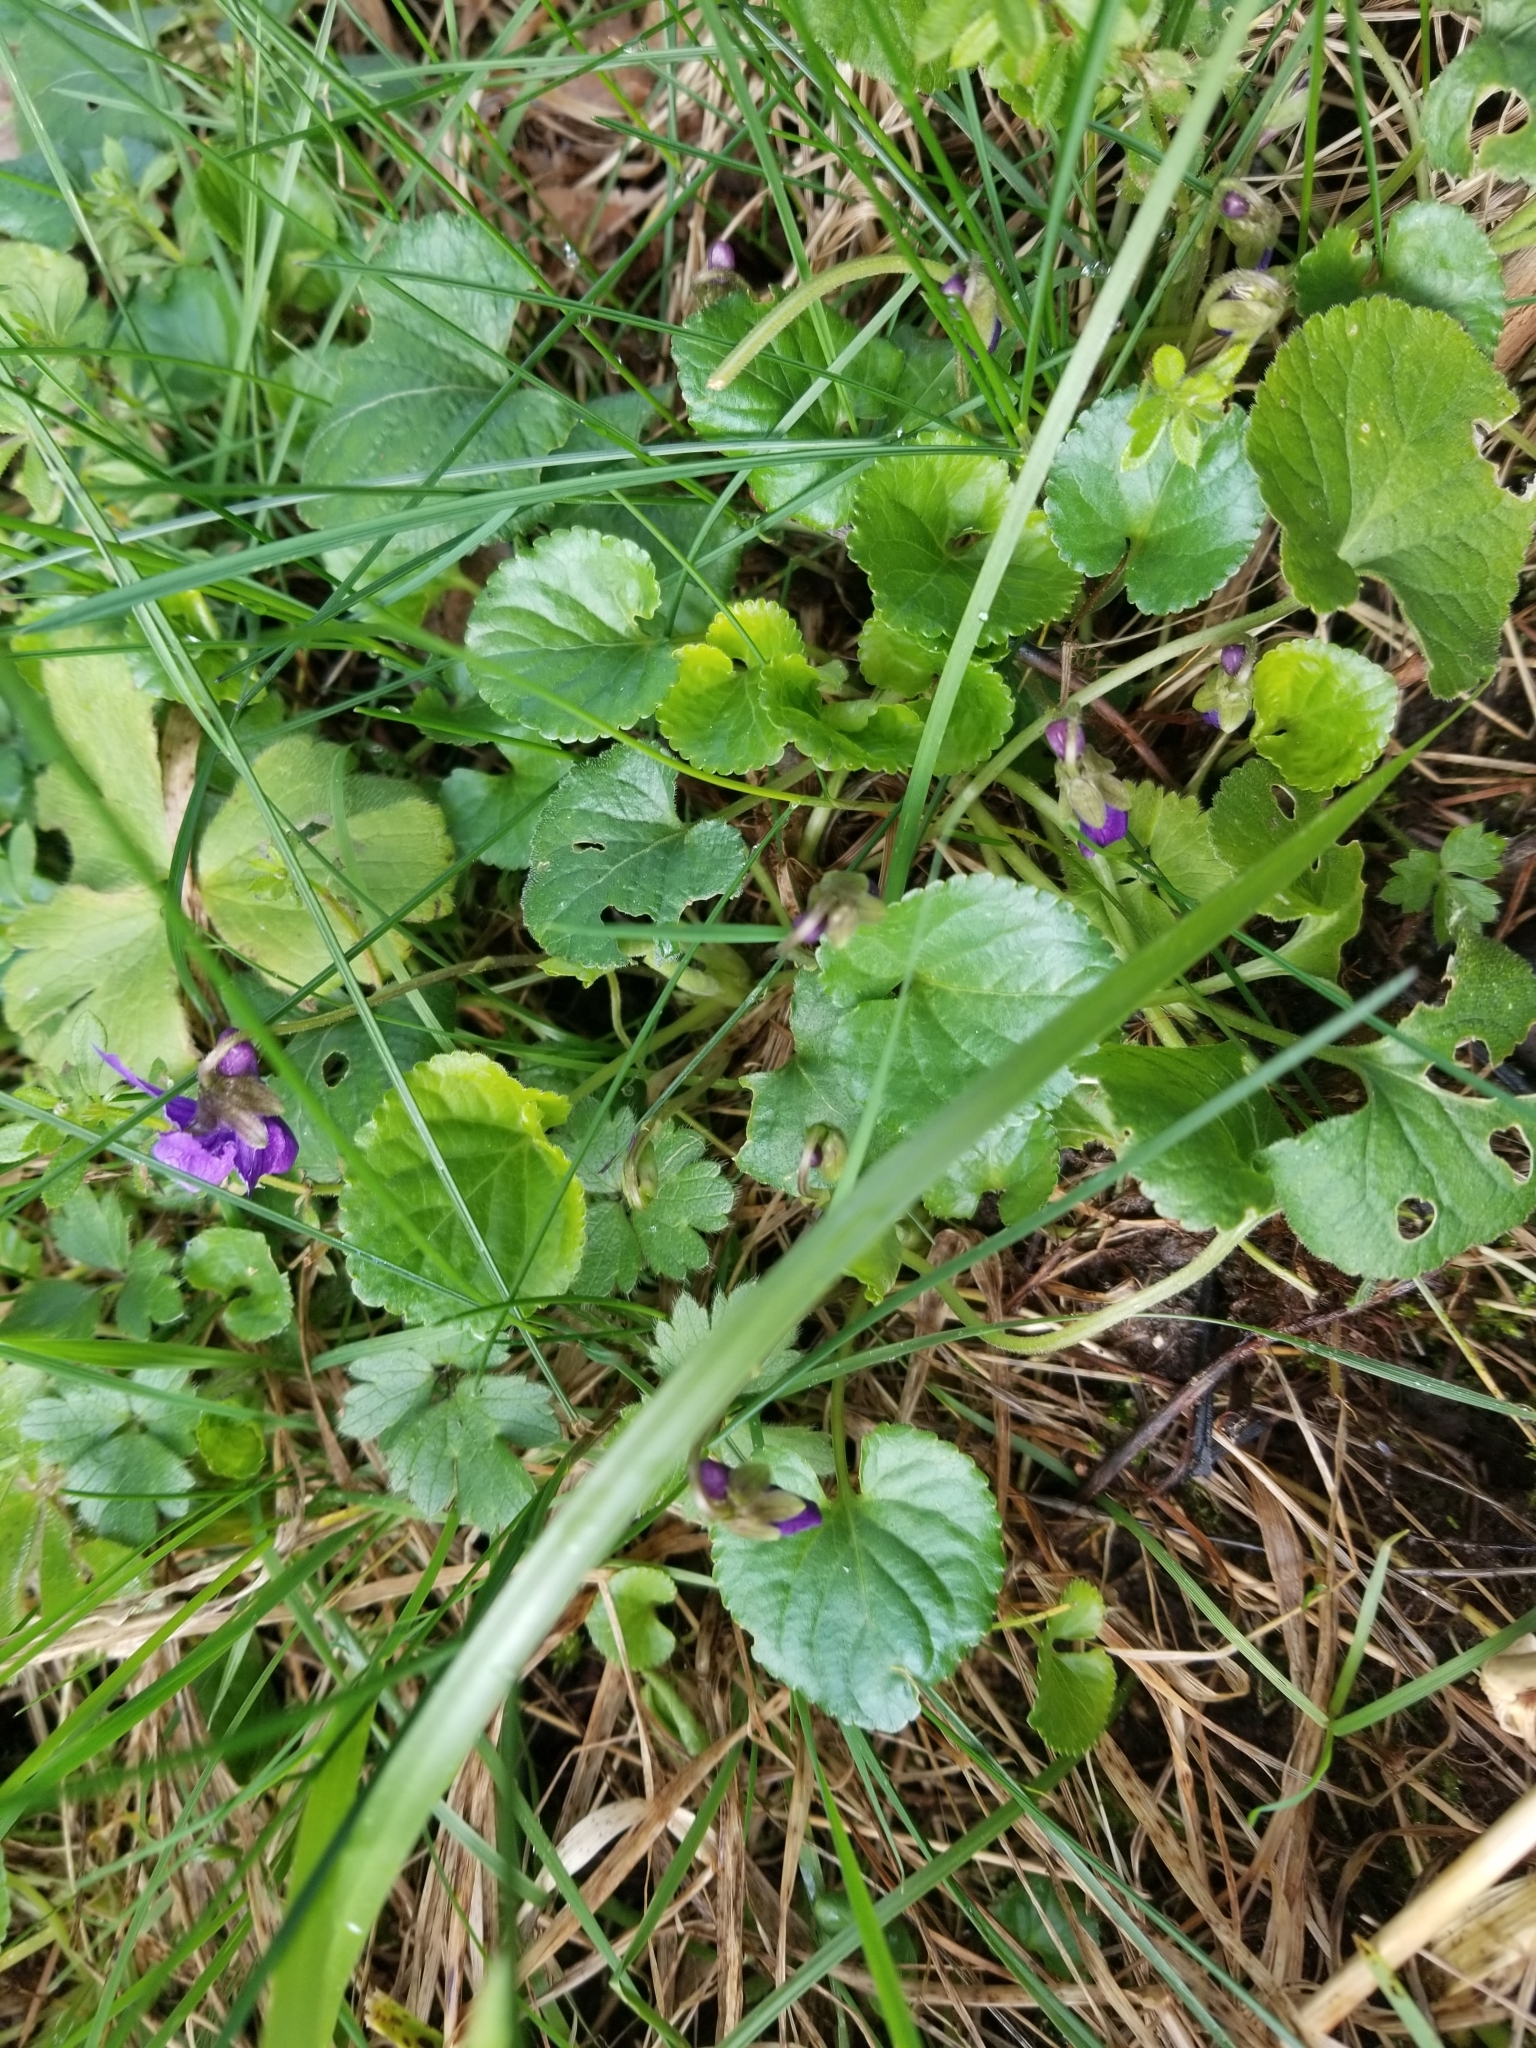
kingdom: Plantae
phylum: Tracheophyta
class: Magnoliopsida
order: Malpighiales
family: Violaceae
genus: Viola
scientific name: Viola odorata
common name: Sweet violet
